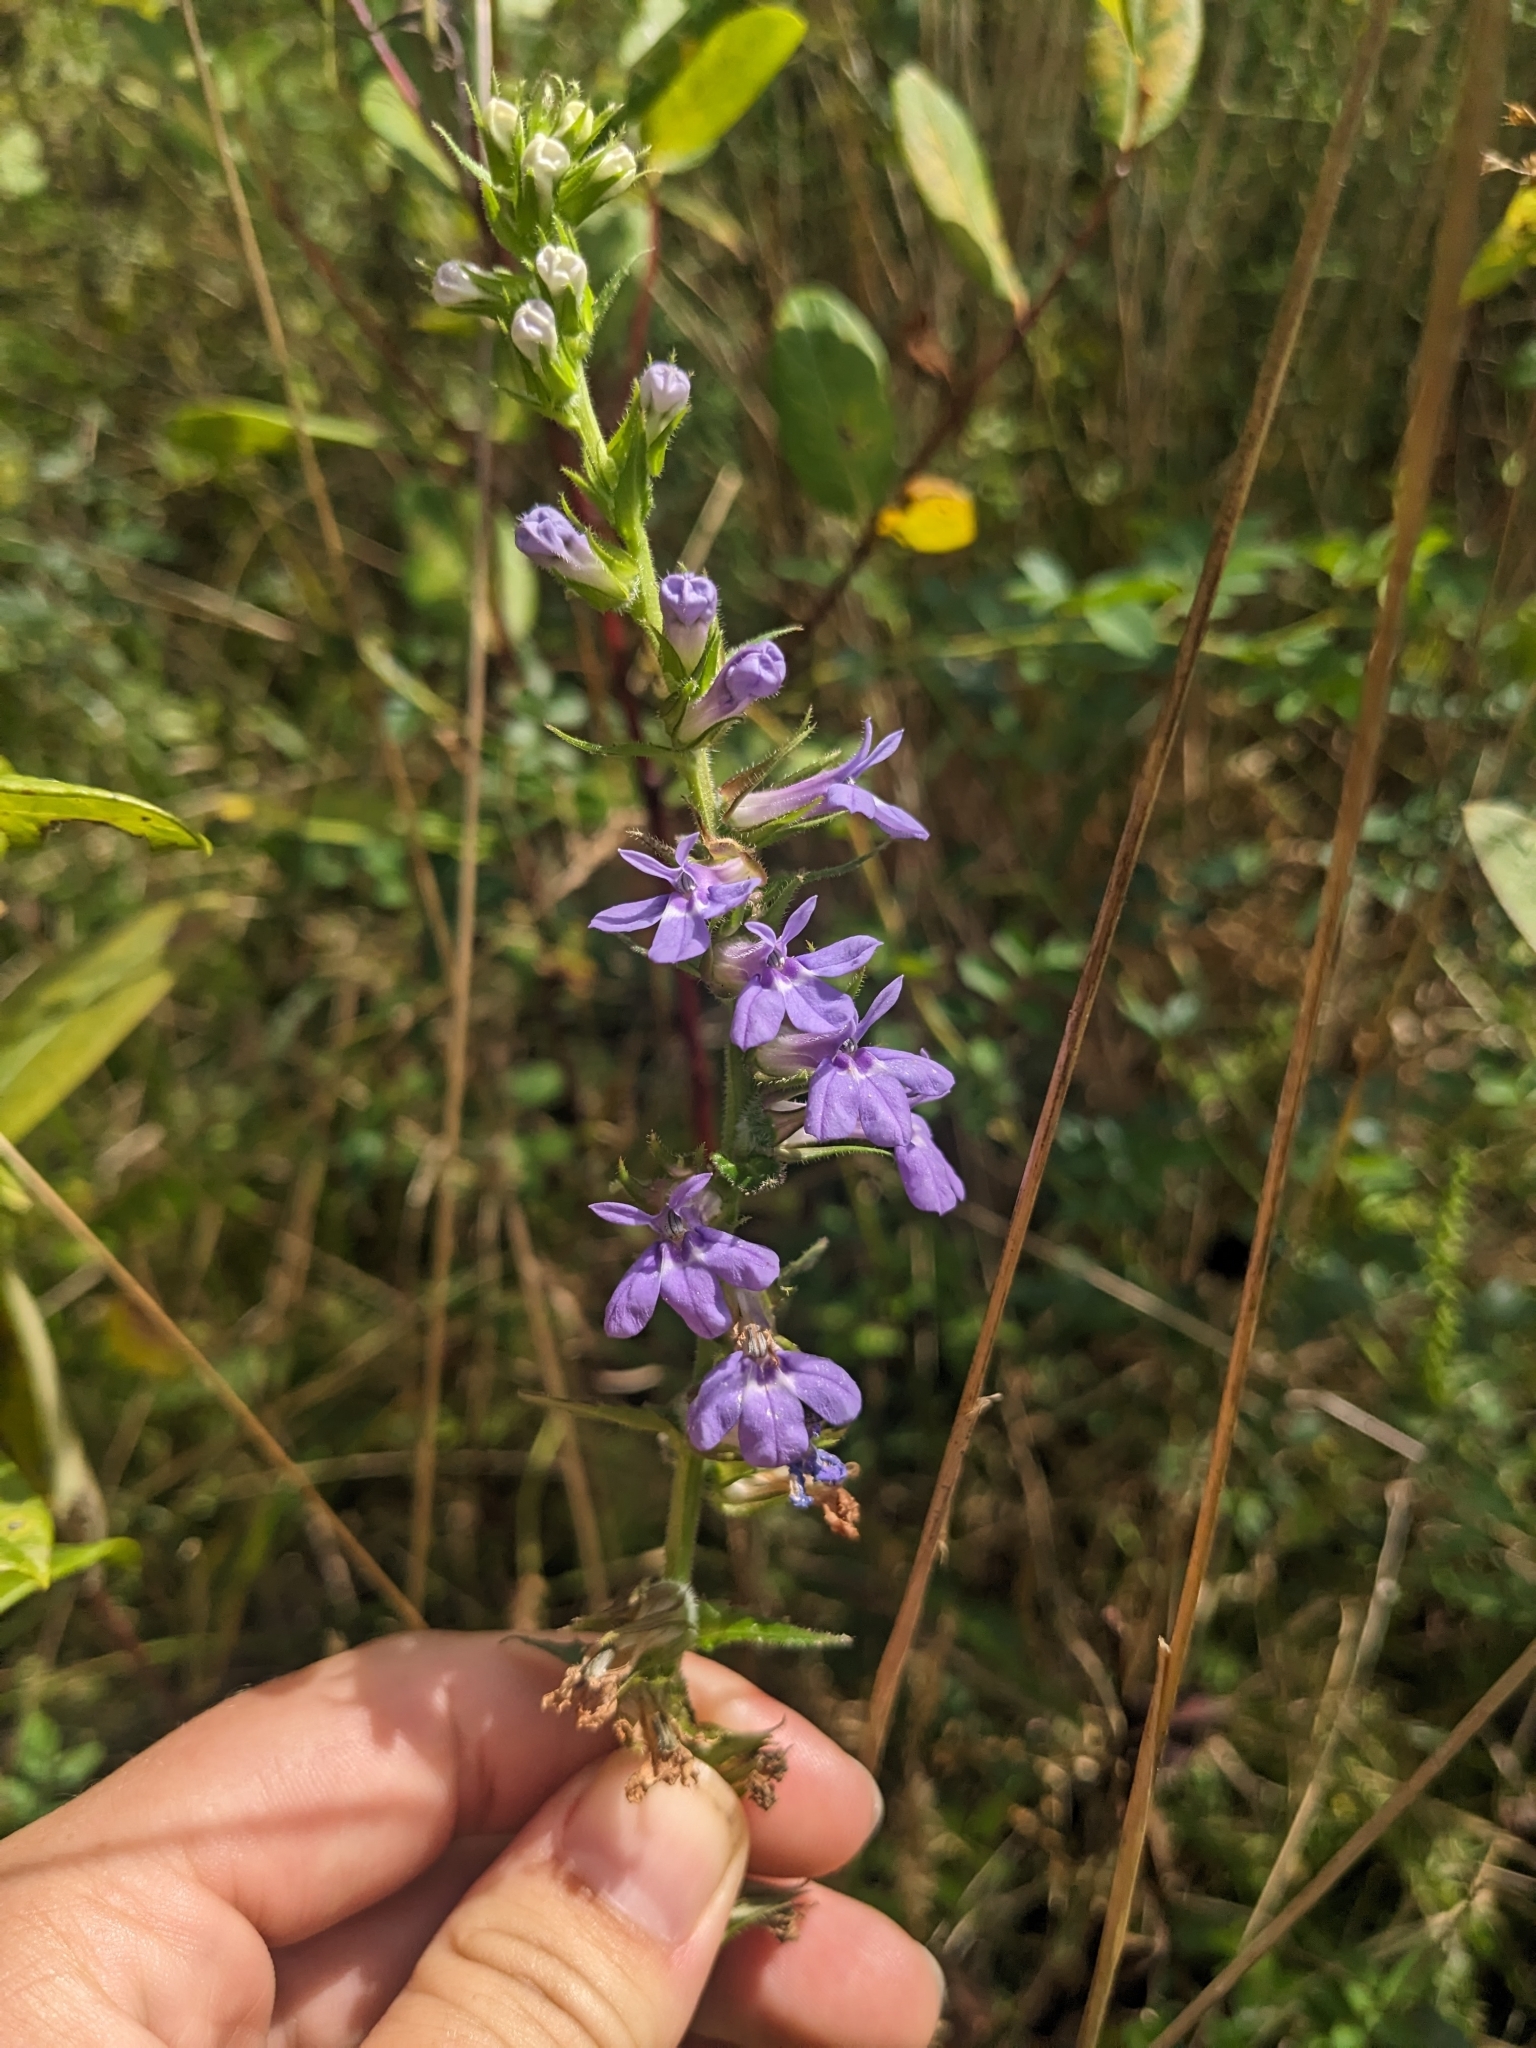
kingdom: Plantae
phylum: Tracheophyta
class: Magnoliopsida
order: Asterales
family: Campanulaceae
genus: Lobelia
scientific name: Lobelia puberula
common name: Purple dewdrop
